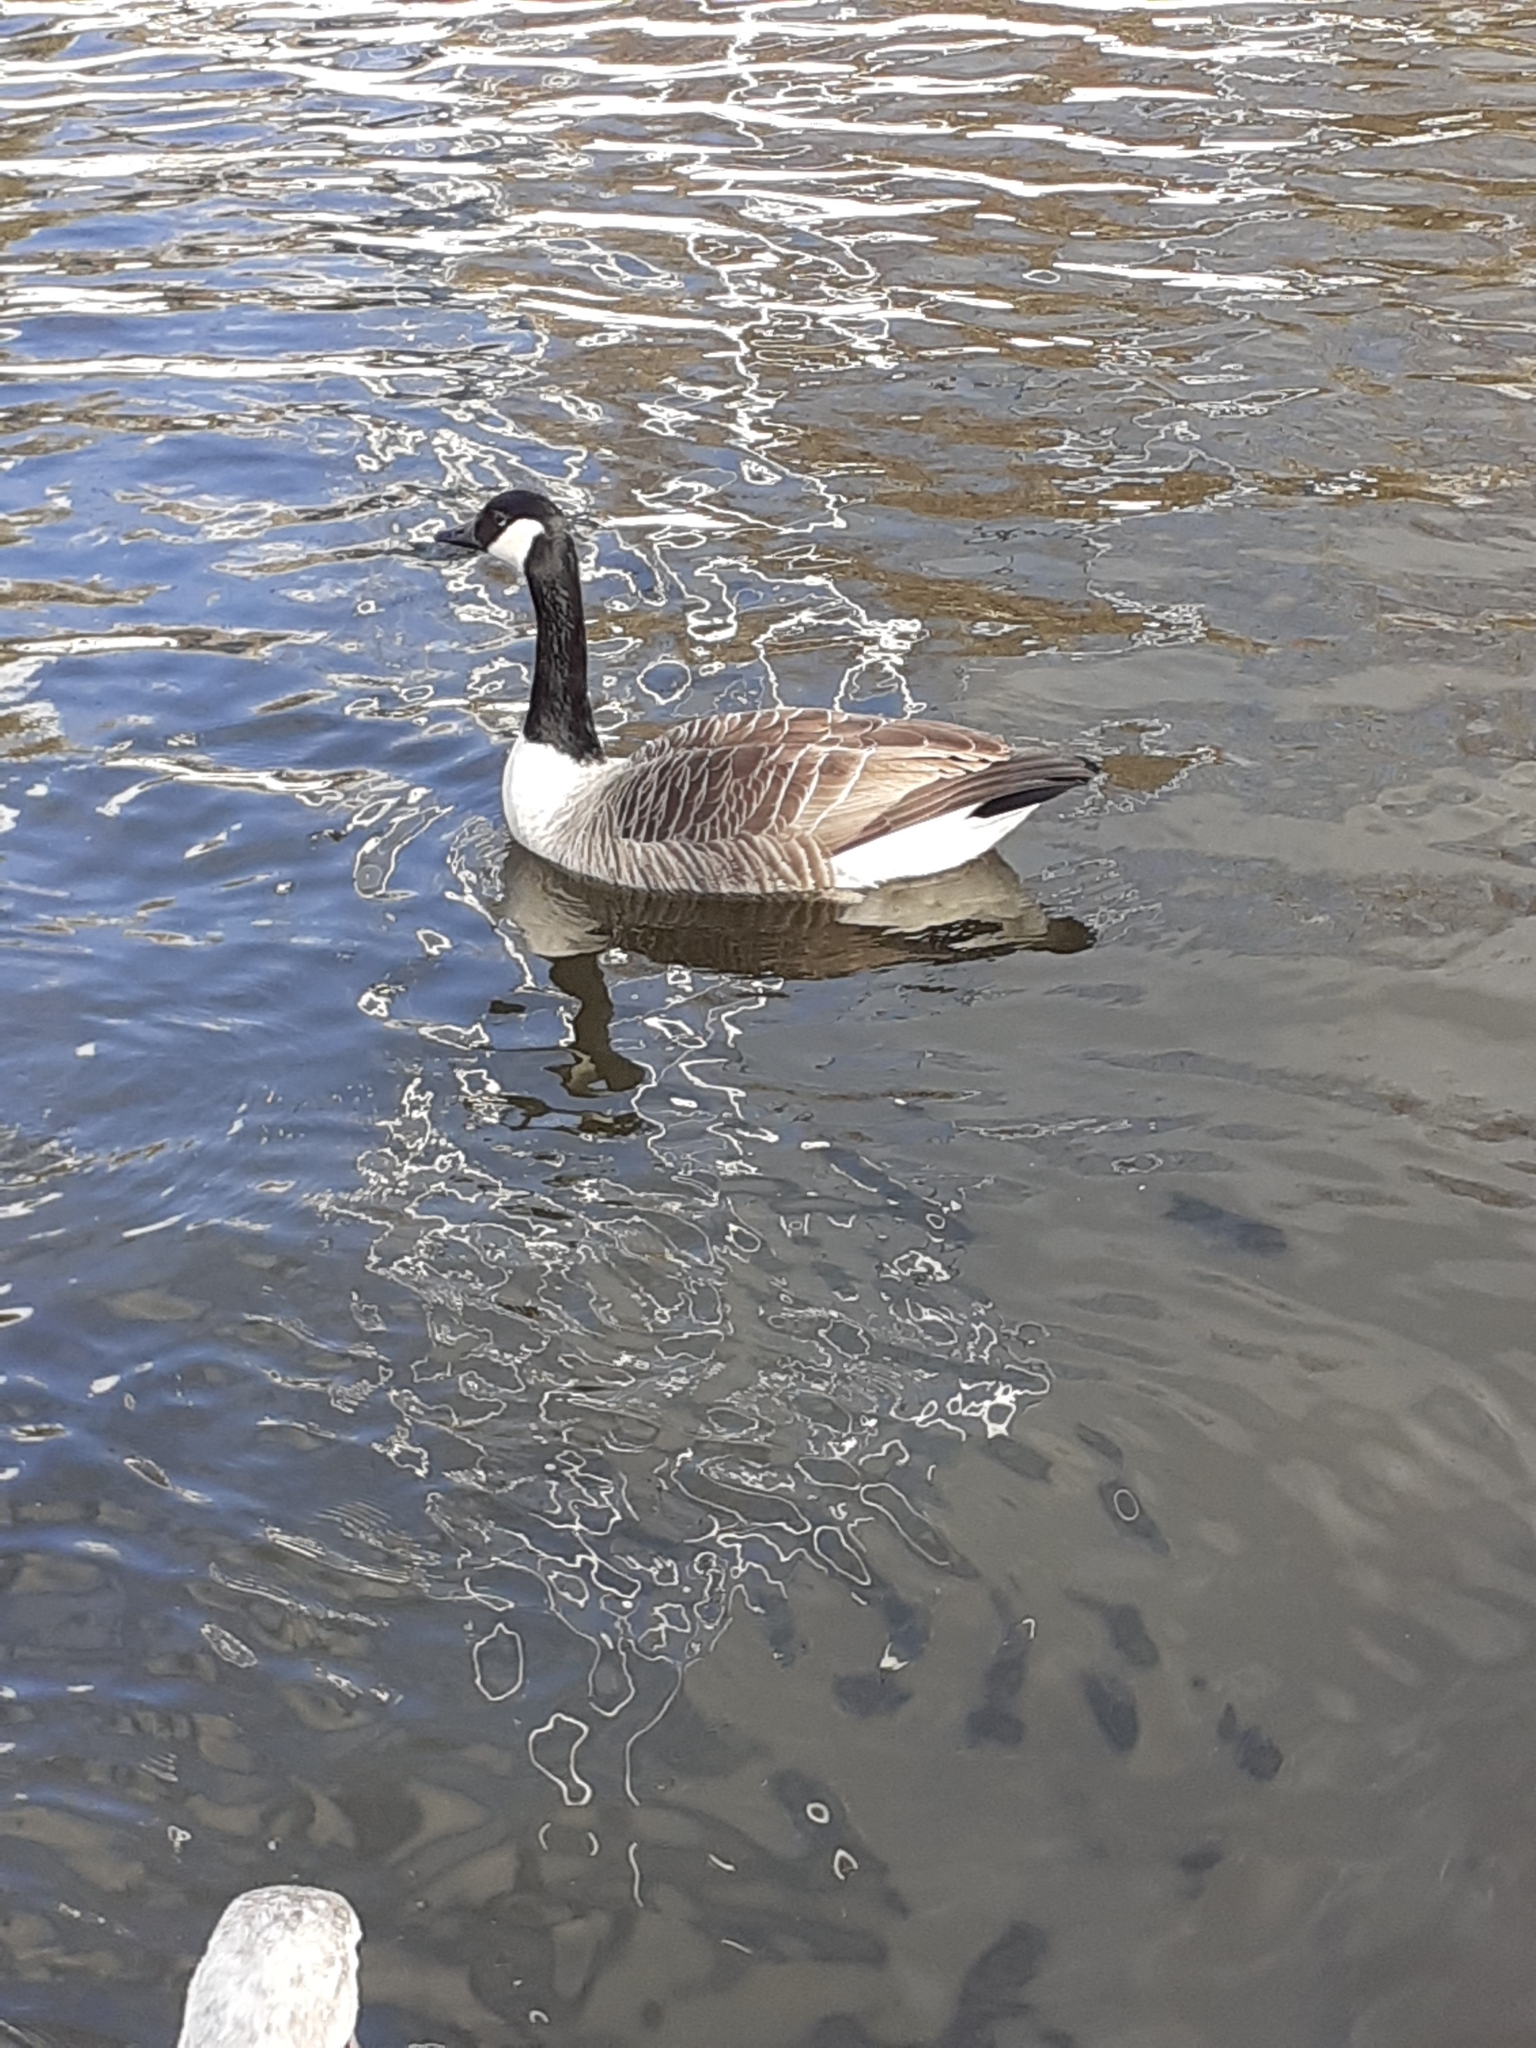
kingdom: Animalia
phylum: Chordata
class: Aves
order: Anseriformes
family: Anatidae
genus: Branta
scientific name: Branta canadensis
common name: Canada goose
